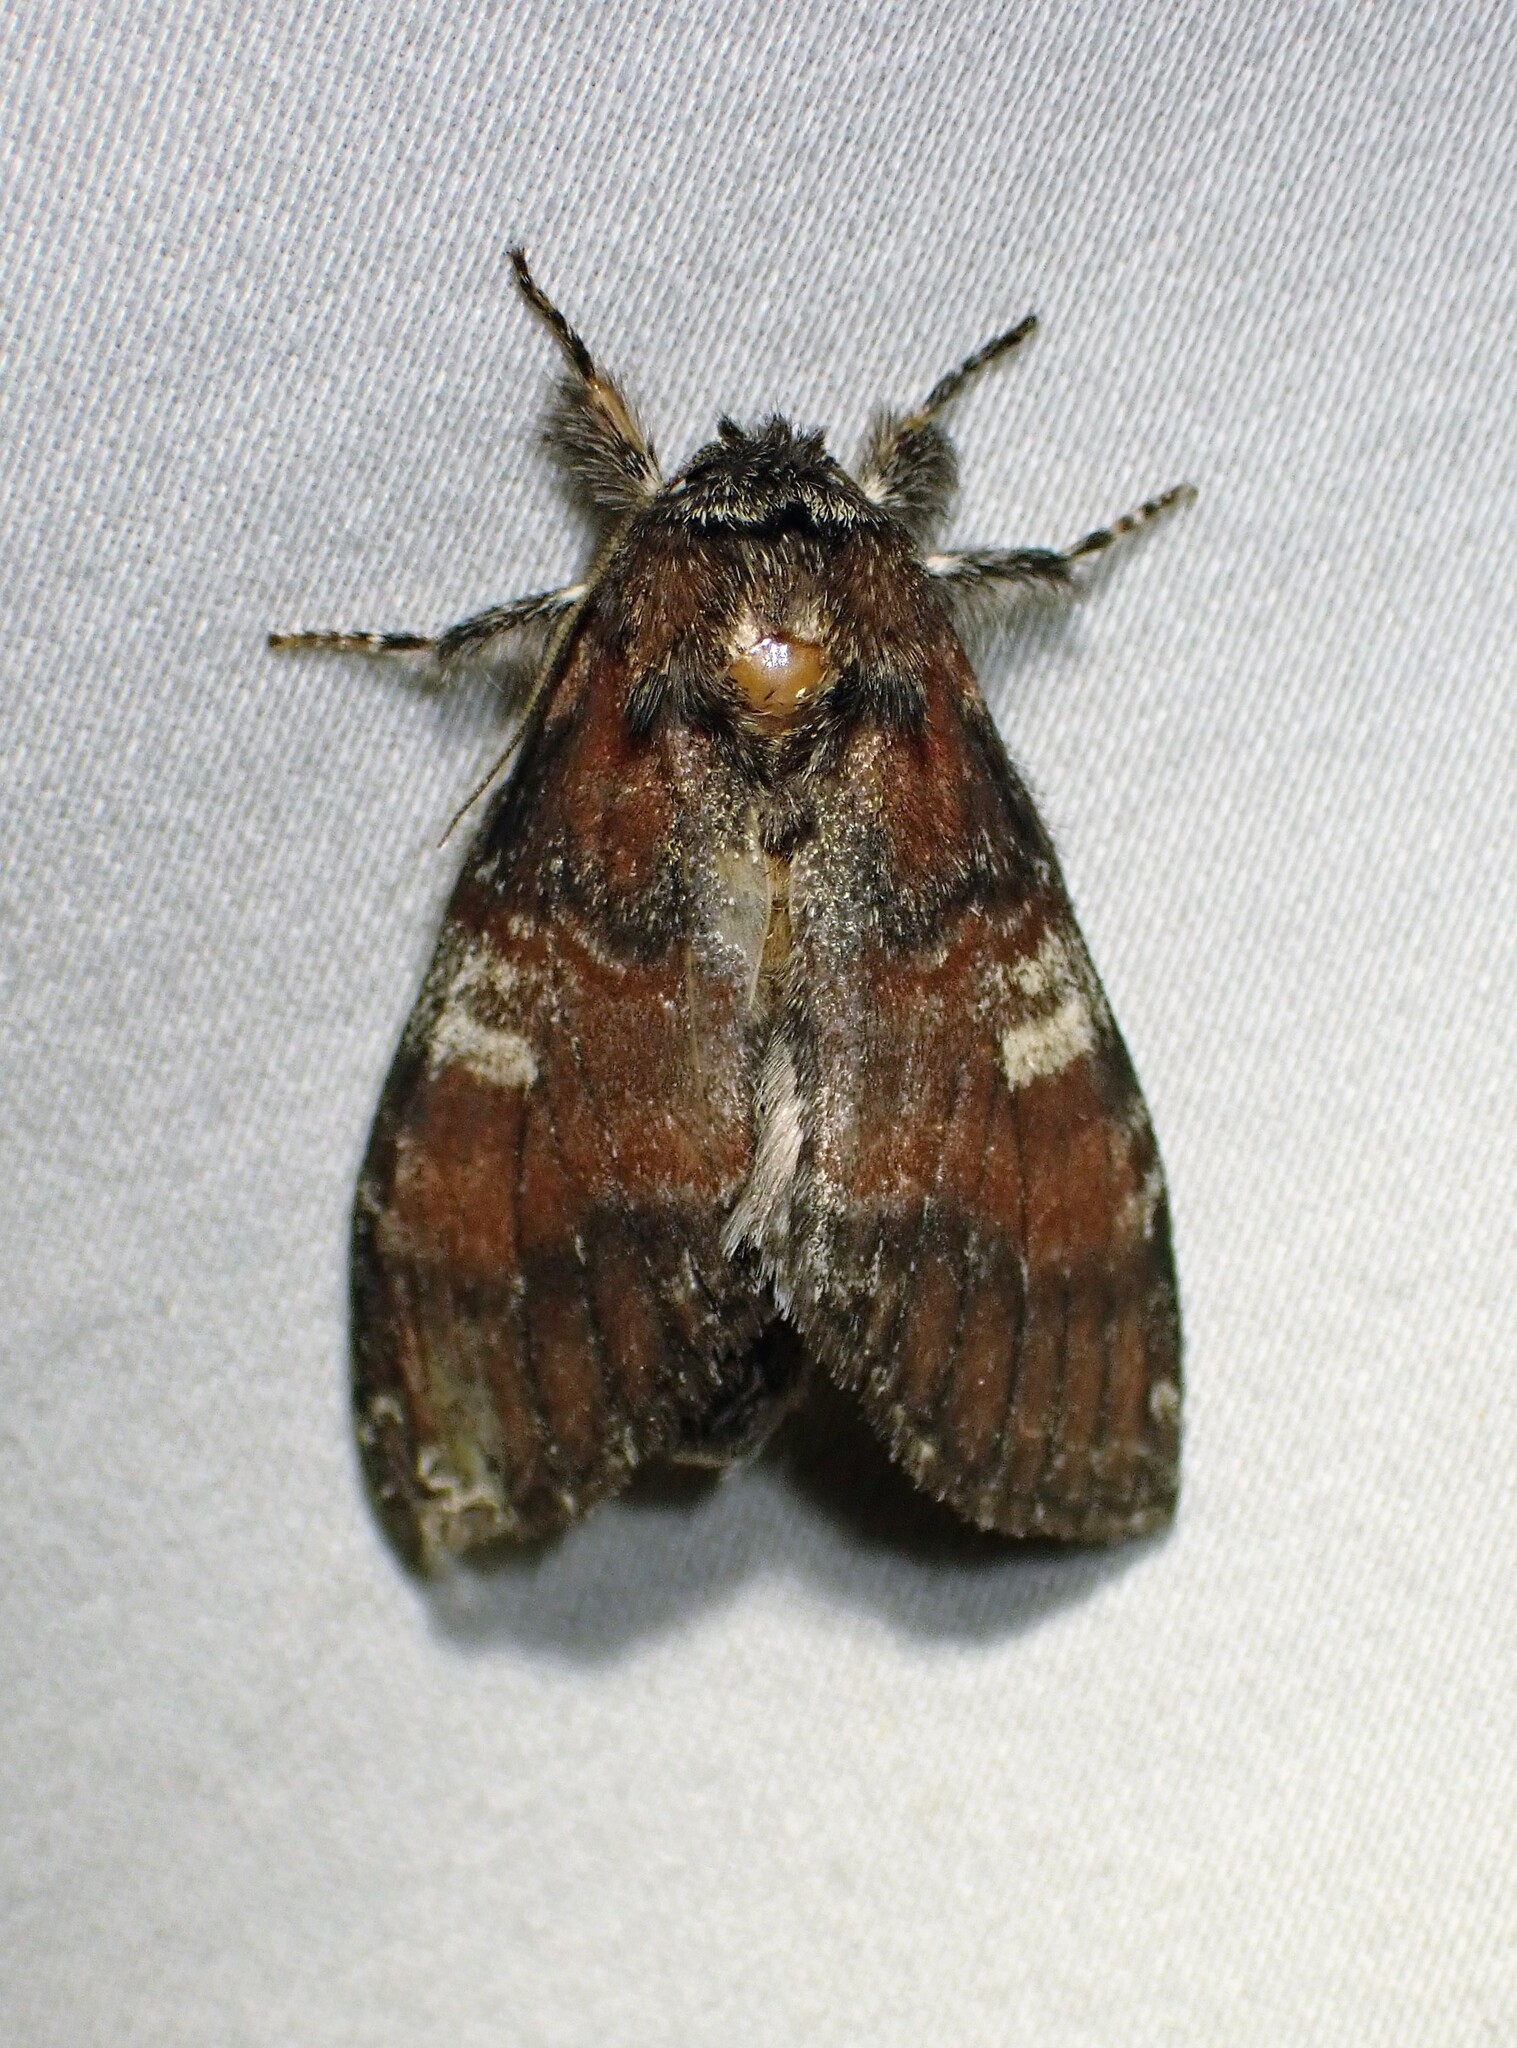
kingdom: Animalia
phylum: Arthropoda
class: Insecta
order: Lepidoptera
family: Notodontidae
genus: Peridea
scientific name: Peridea ferruginea
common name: Chocolate prominent
